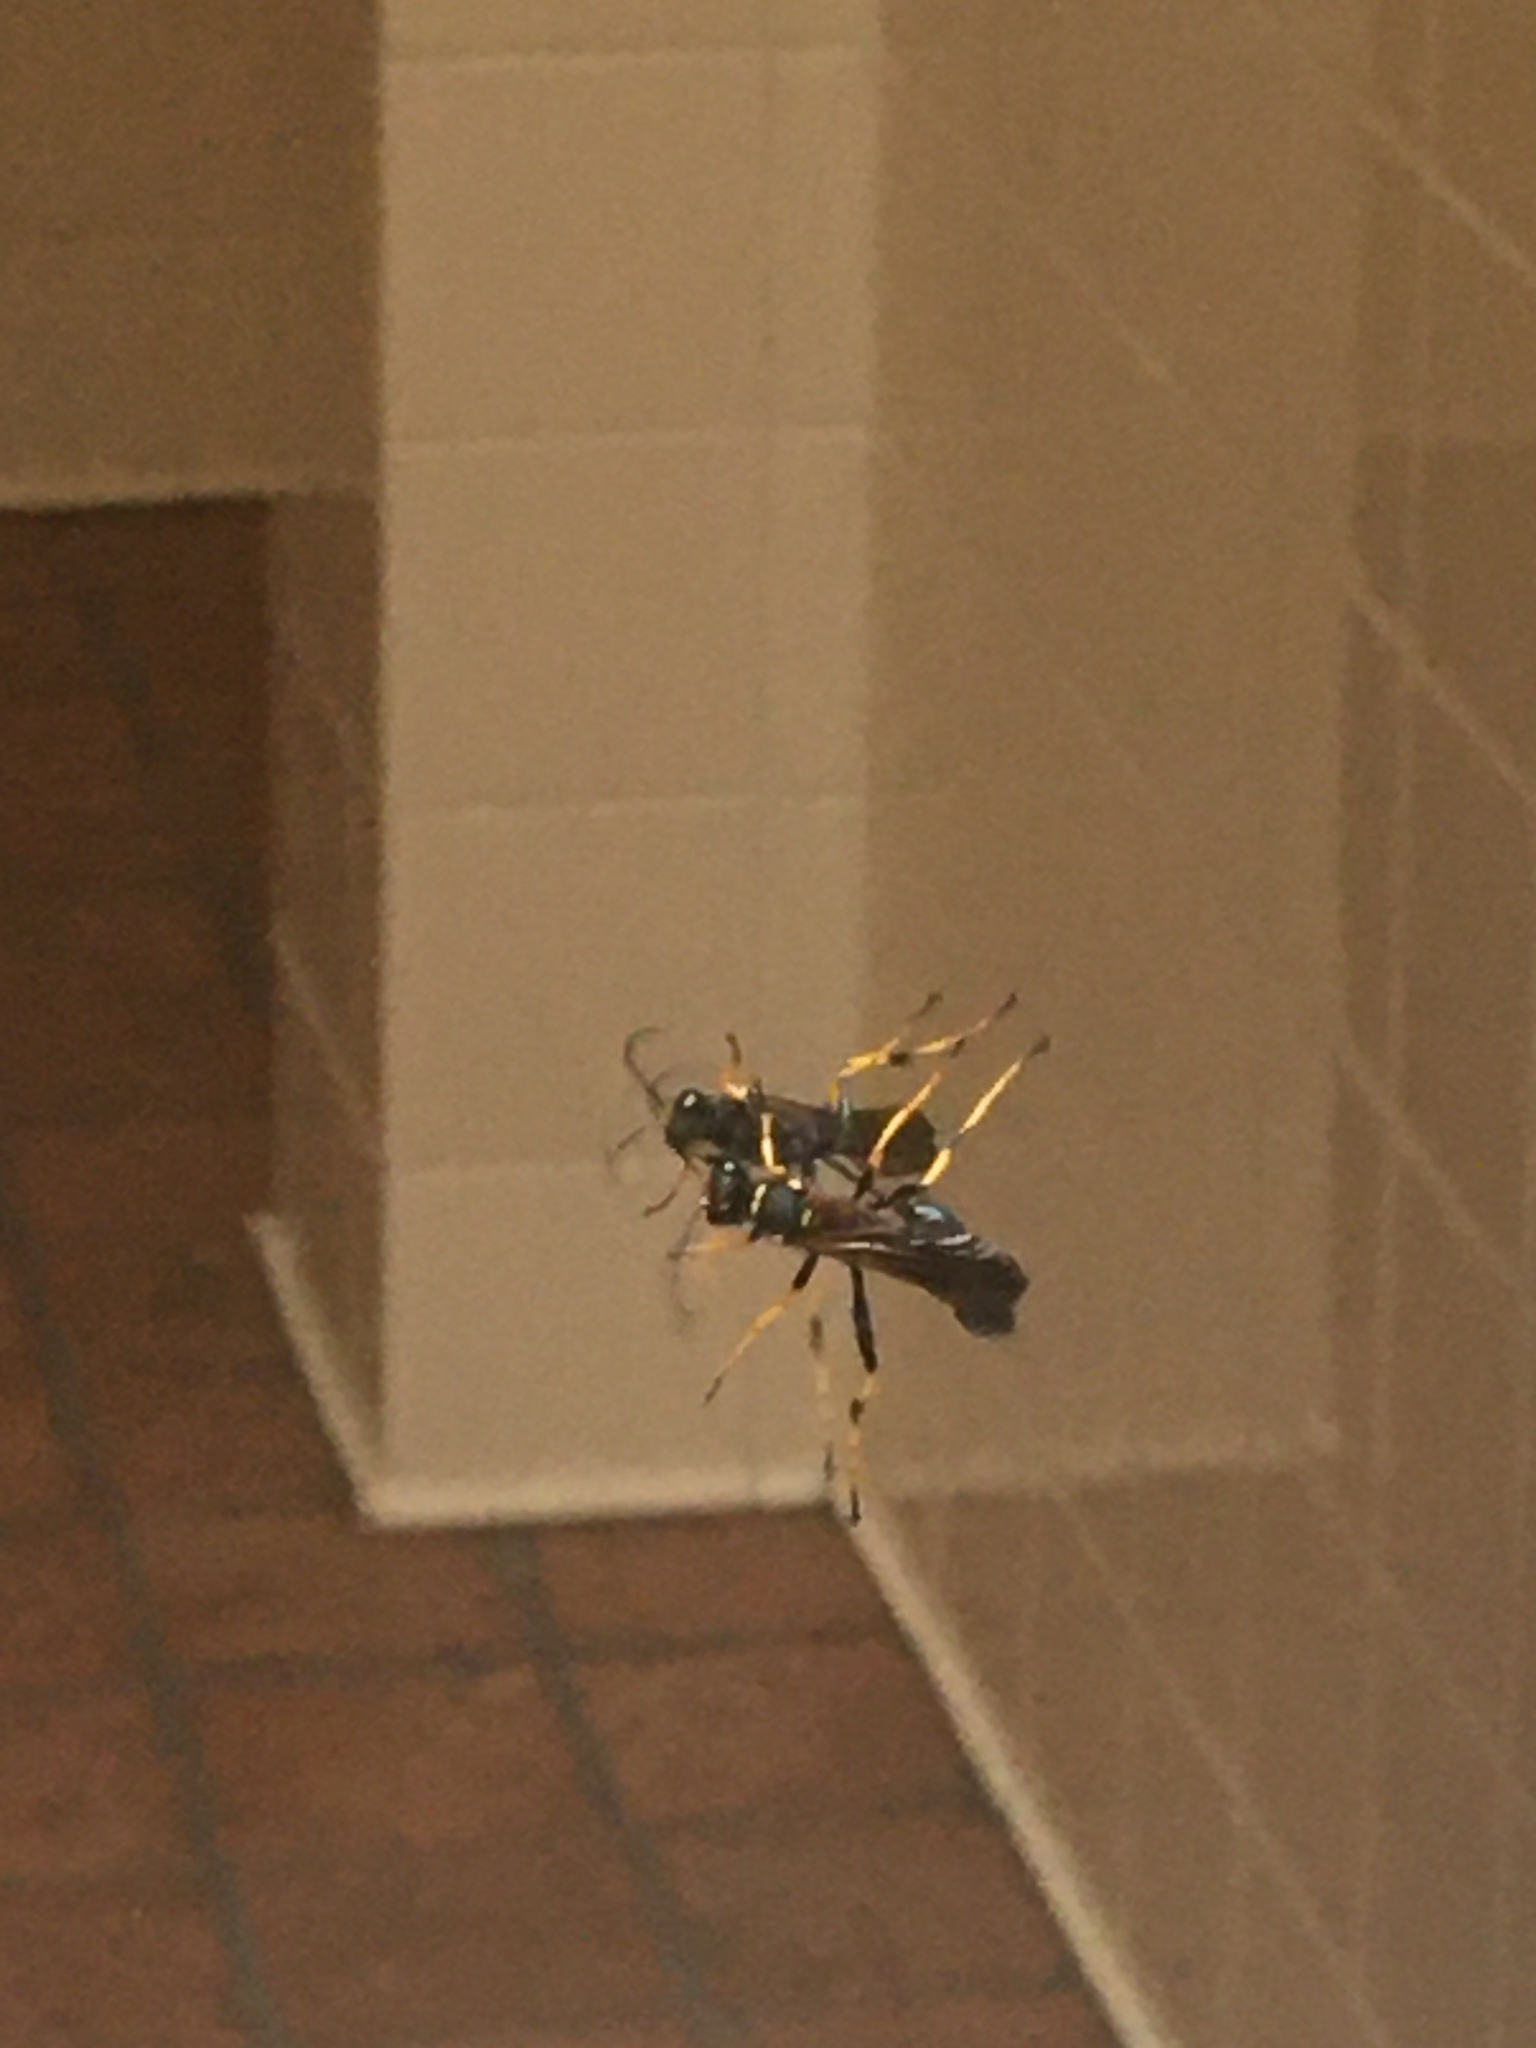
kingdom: Animalia
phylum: Arthropoda
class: Insecta
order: Hymenoptera
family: Sphecidae
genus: Sceliphron
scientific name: Sceliphron caementarium
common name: Mud dauber
